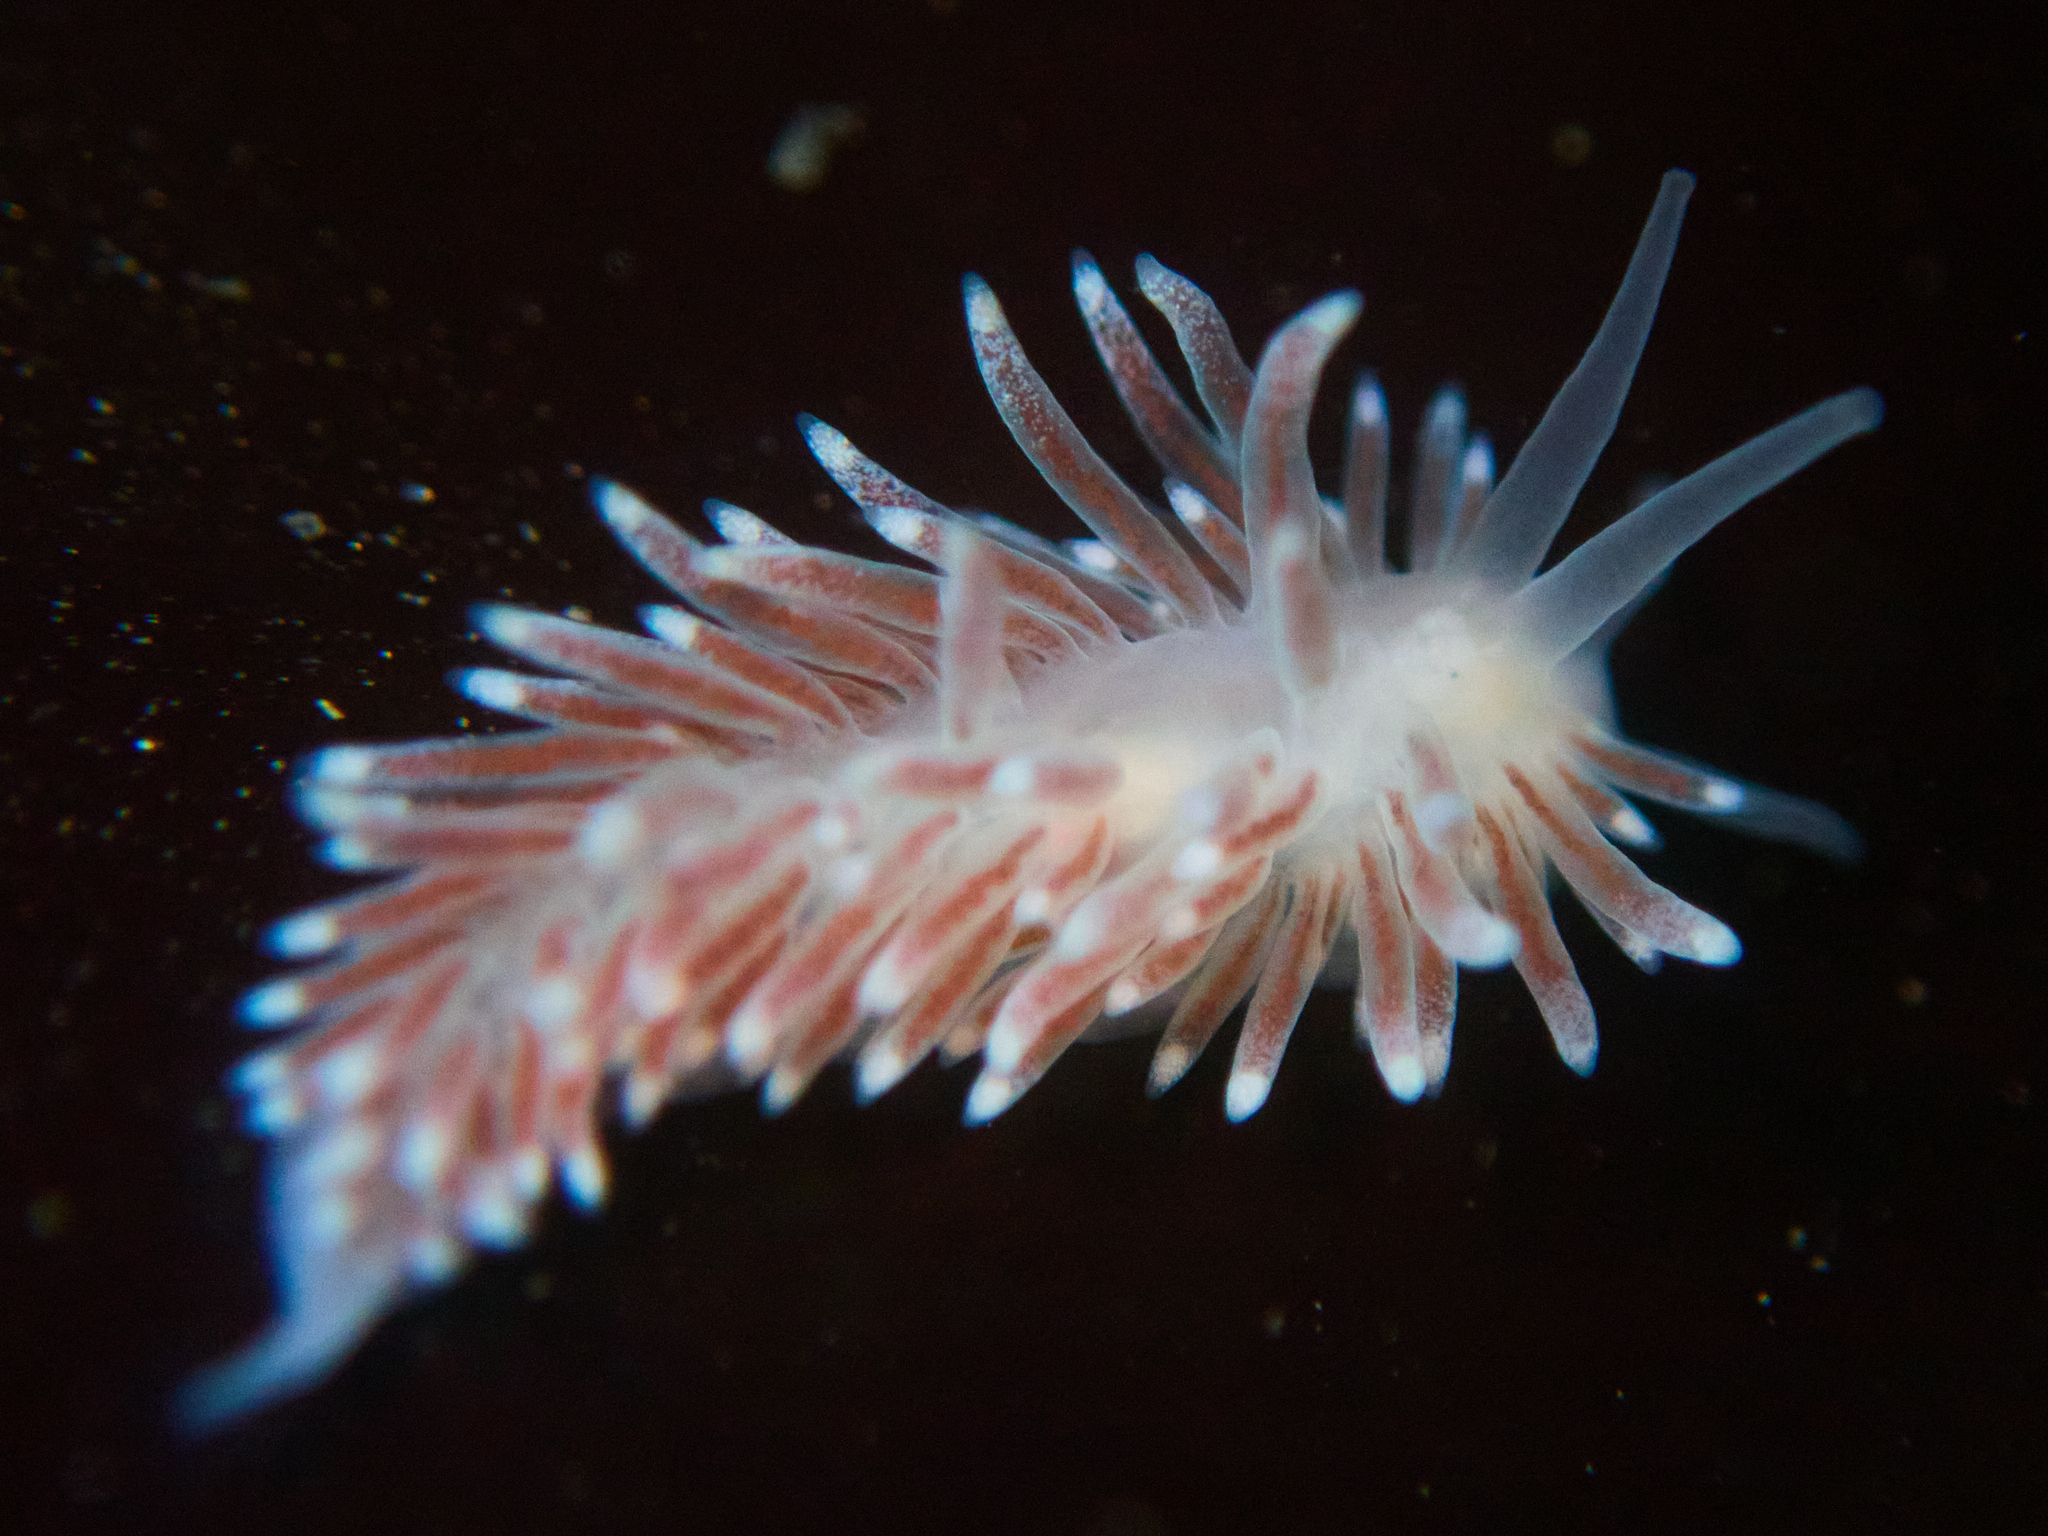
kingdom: Animalia
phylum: Mollusca
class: Gastropoda
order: Nudibranchia
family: Cuthonidae
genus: Cuthona
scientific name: Cuthona divae
